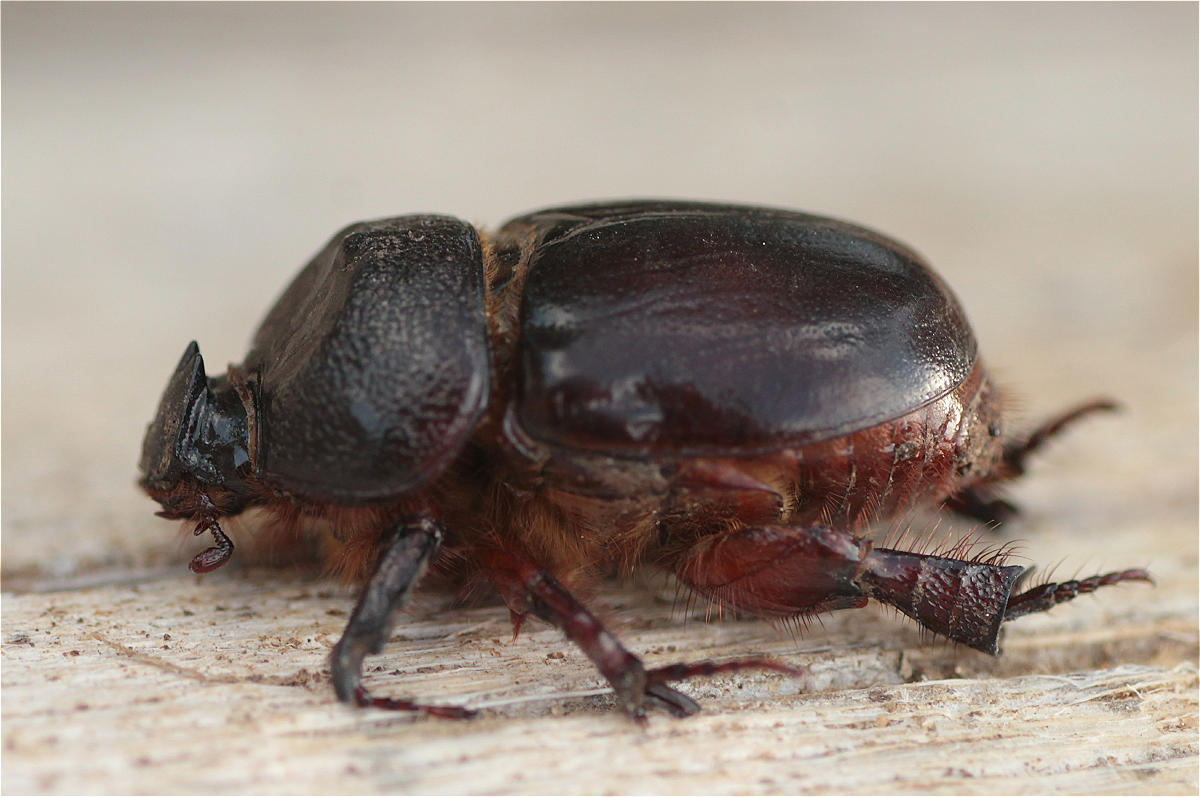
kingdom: Animalia
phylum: Arthropoda
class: Insecta
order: Coleoptera
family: Scarabaeidae
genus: Temnorhynchus
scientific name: Temnorhynchus baal
